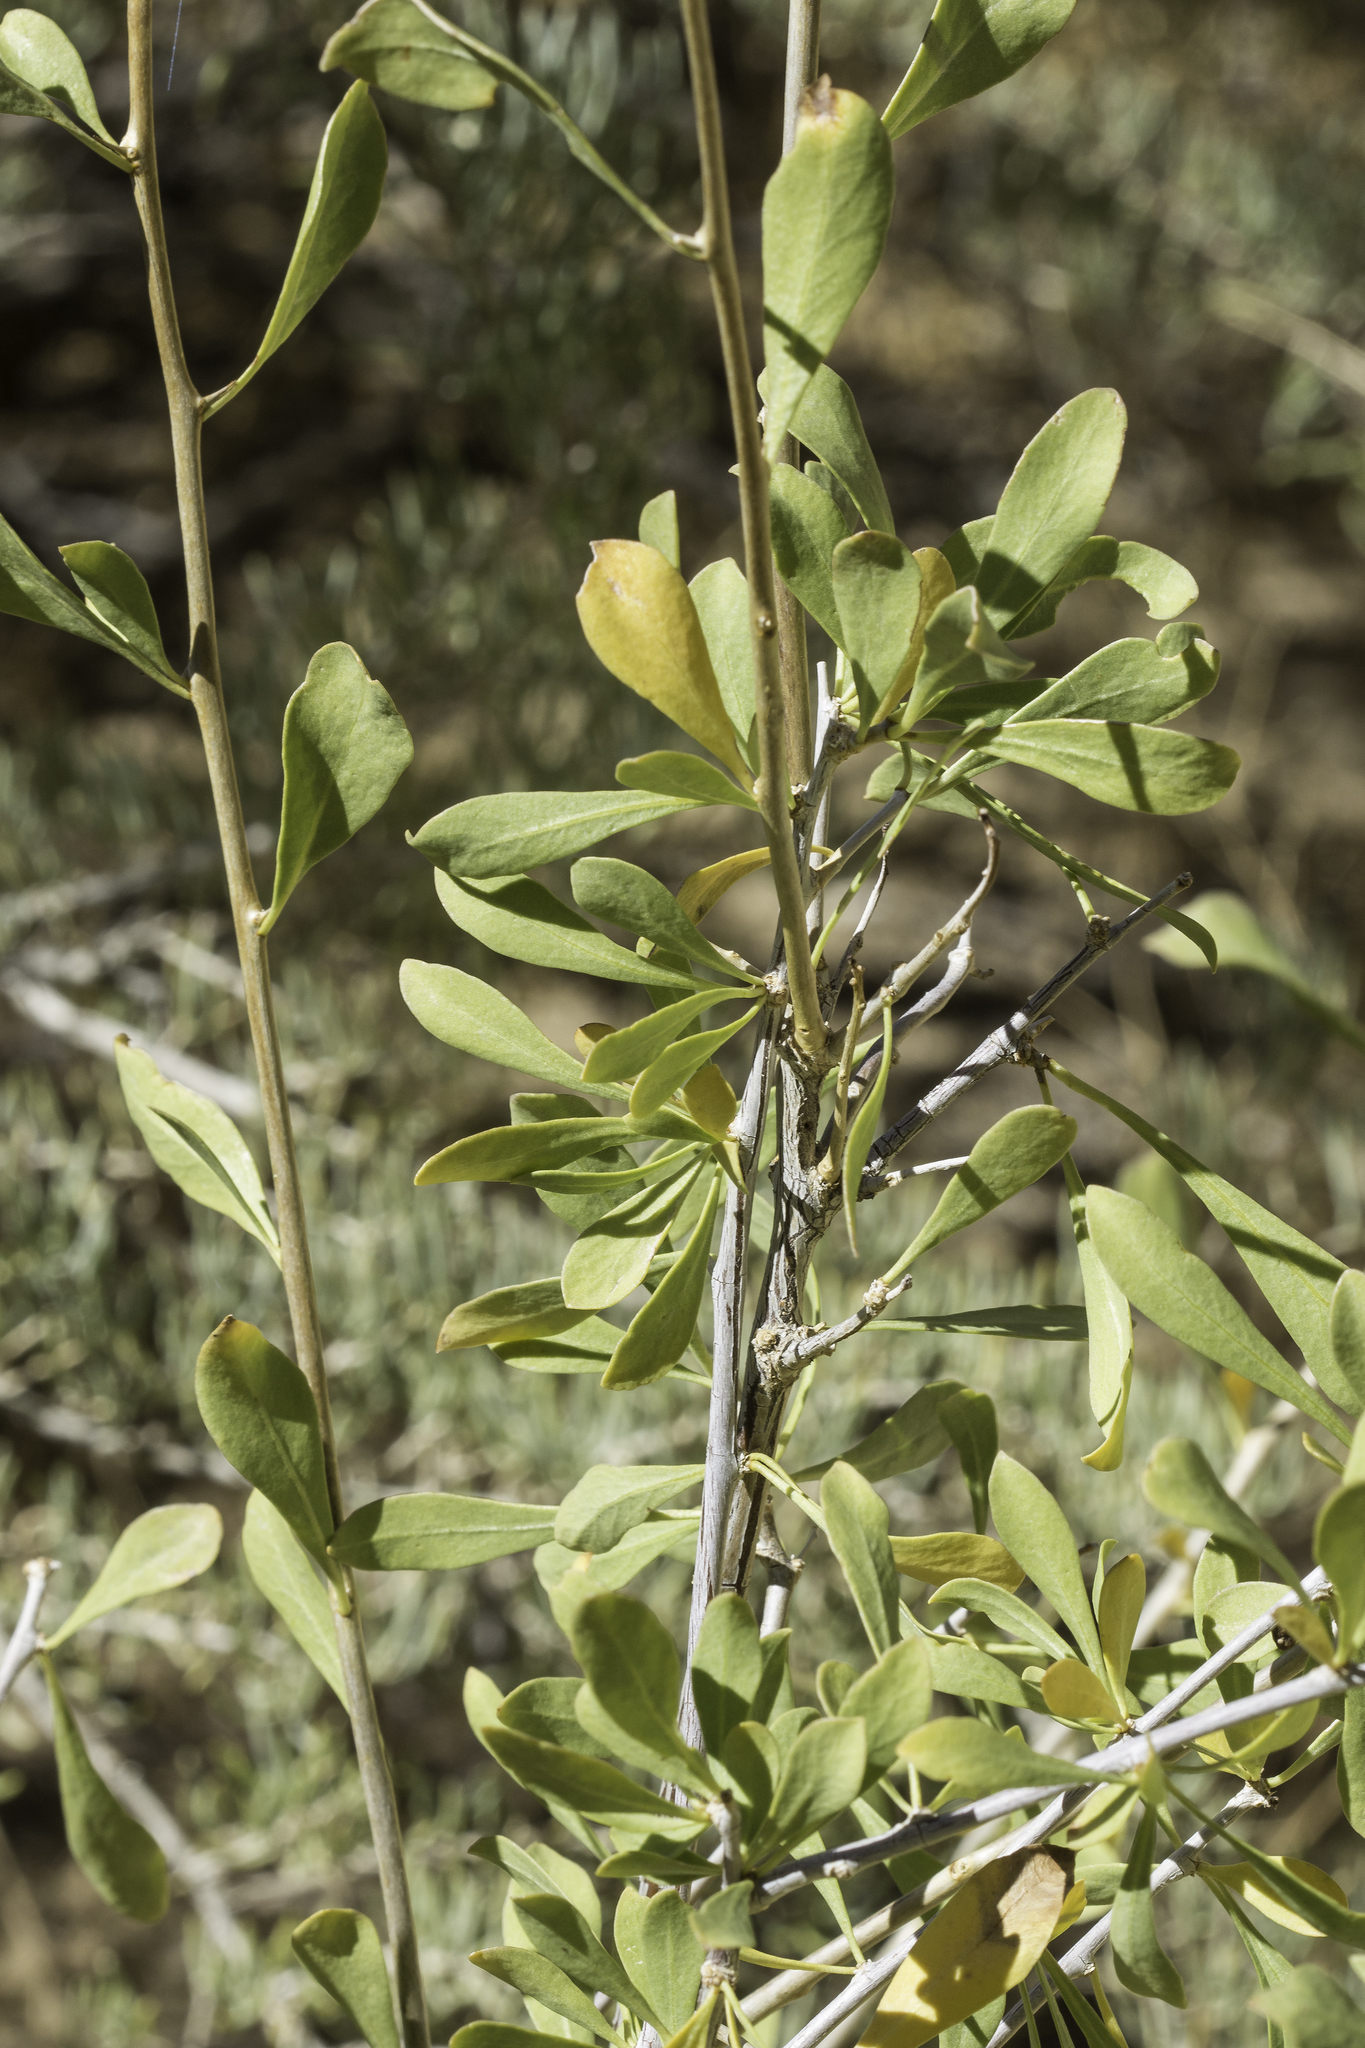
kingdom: Plantae
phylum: Tracheophyta
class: Magnoliopsida
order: Solanales
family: Solanaceae
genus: Lycium
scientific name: Lycium pallidum
